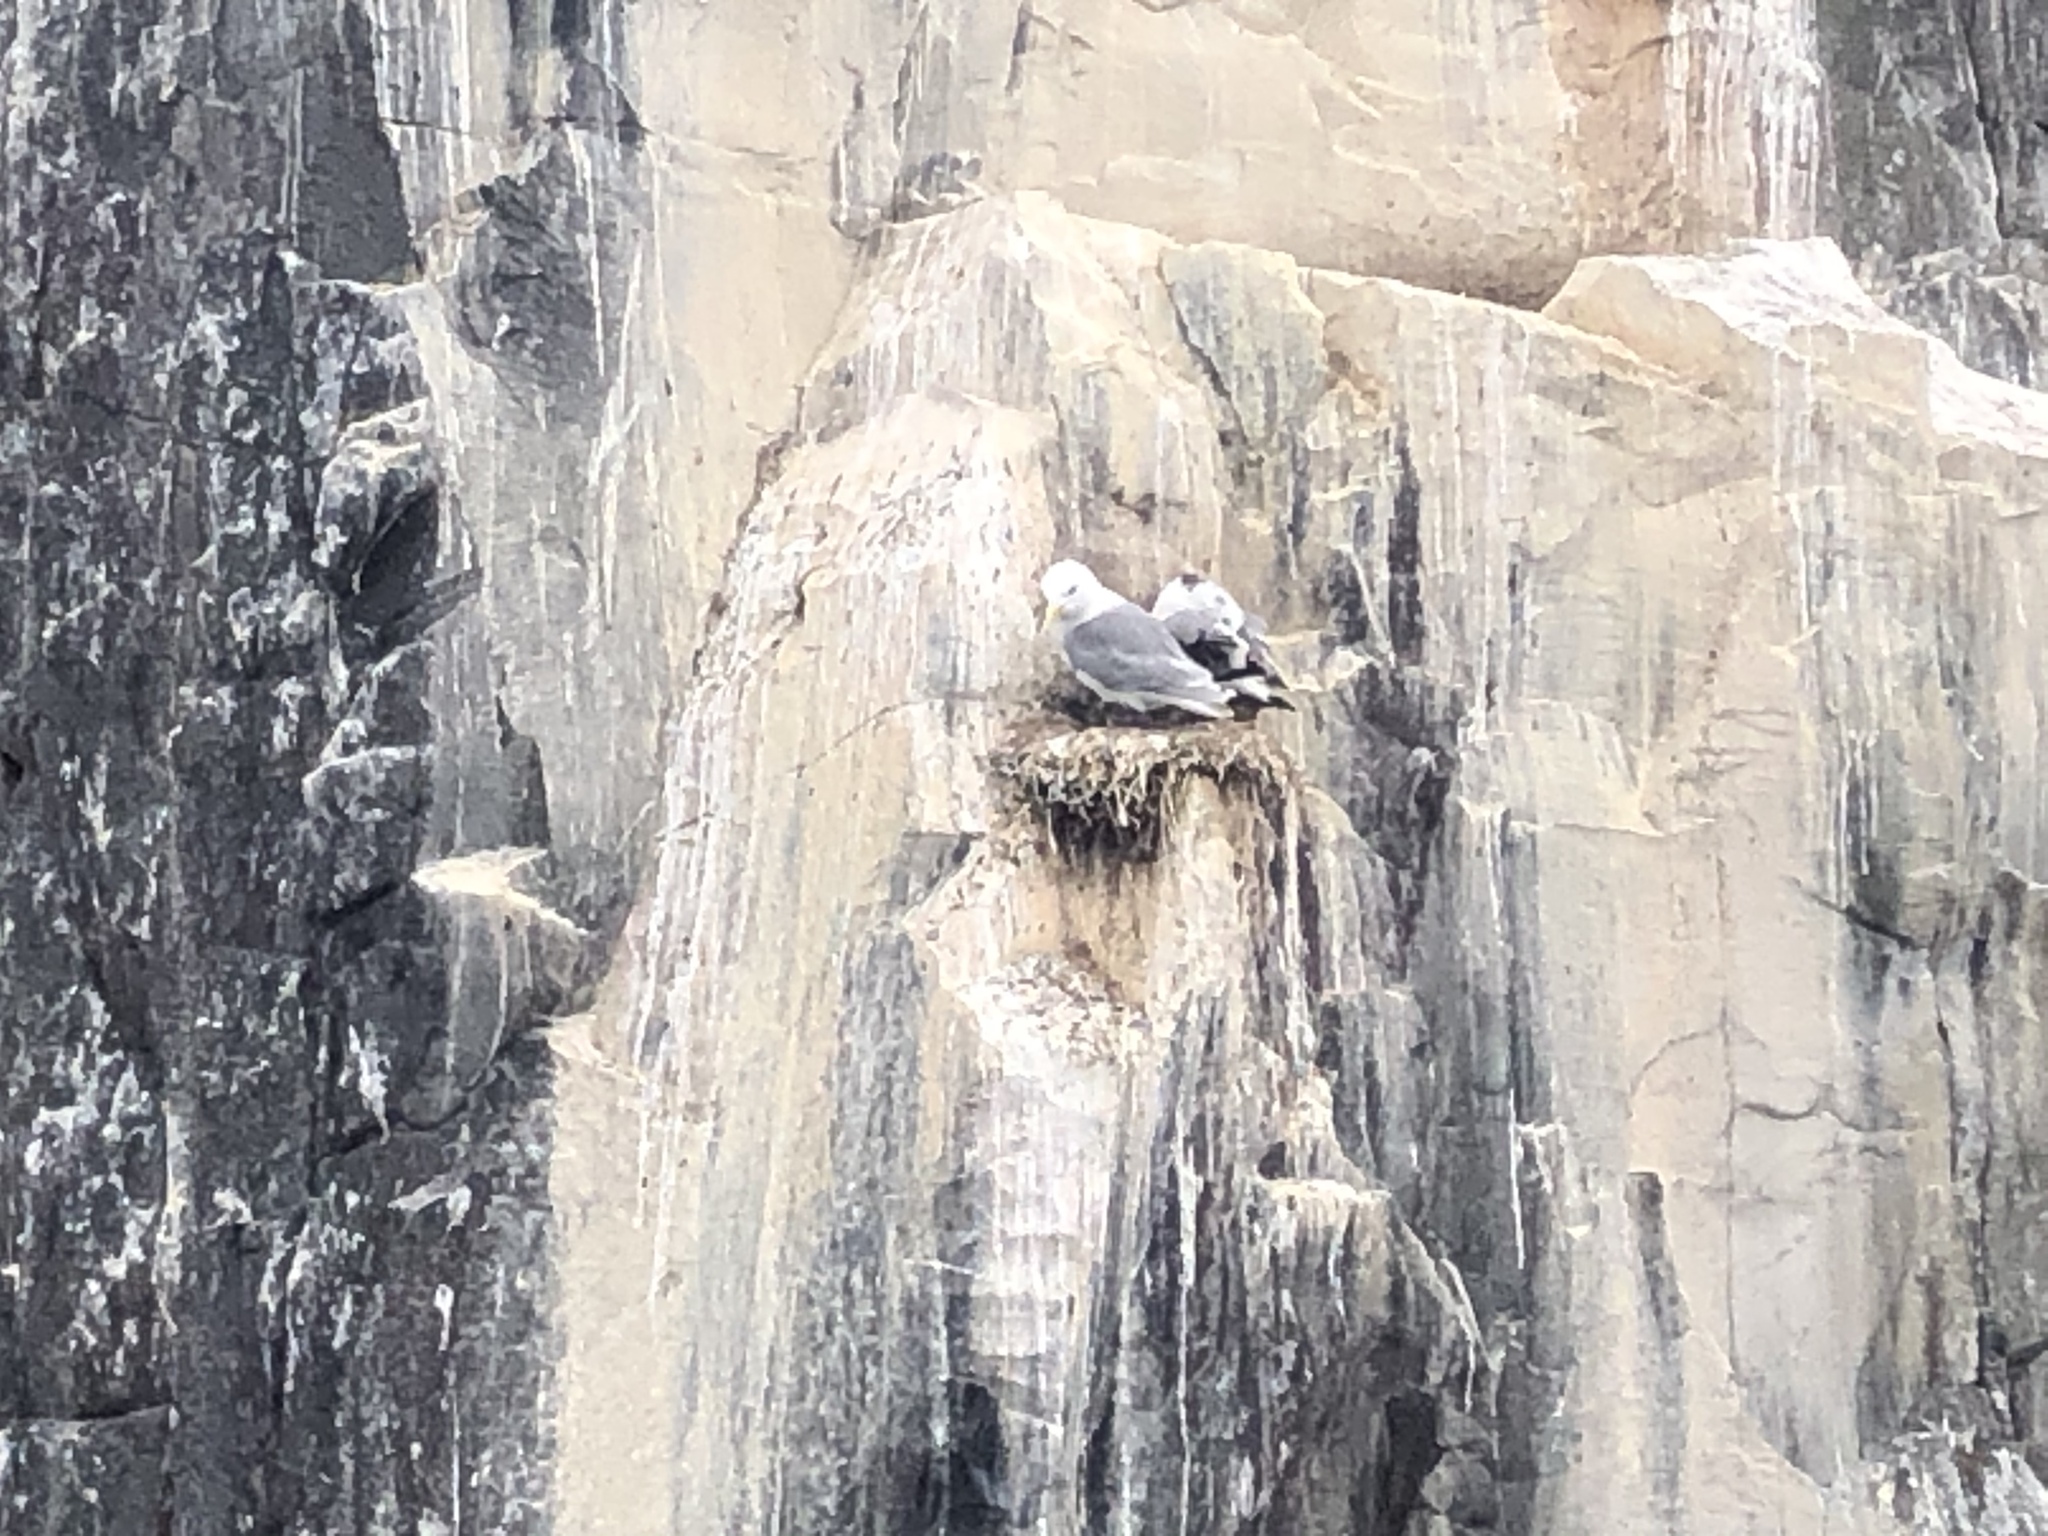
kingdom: Animalia
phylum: Chordata
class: Aves
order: Charadriiformes
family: Laridae
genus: Rissa
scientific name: Rissa tridactyla
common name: Black-legged kittiwake
